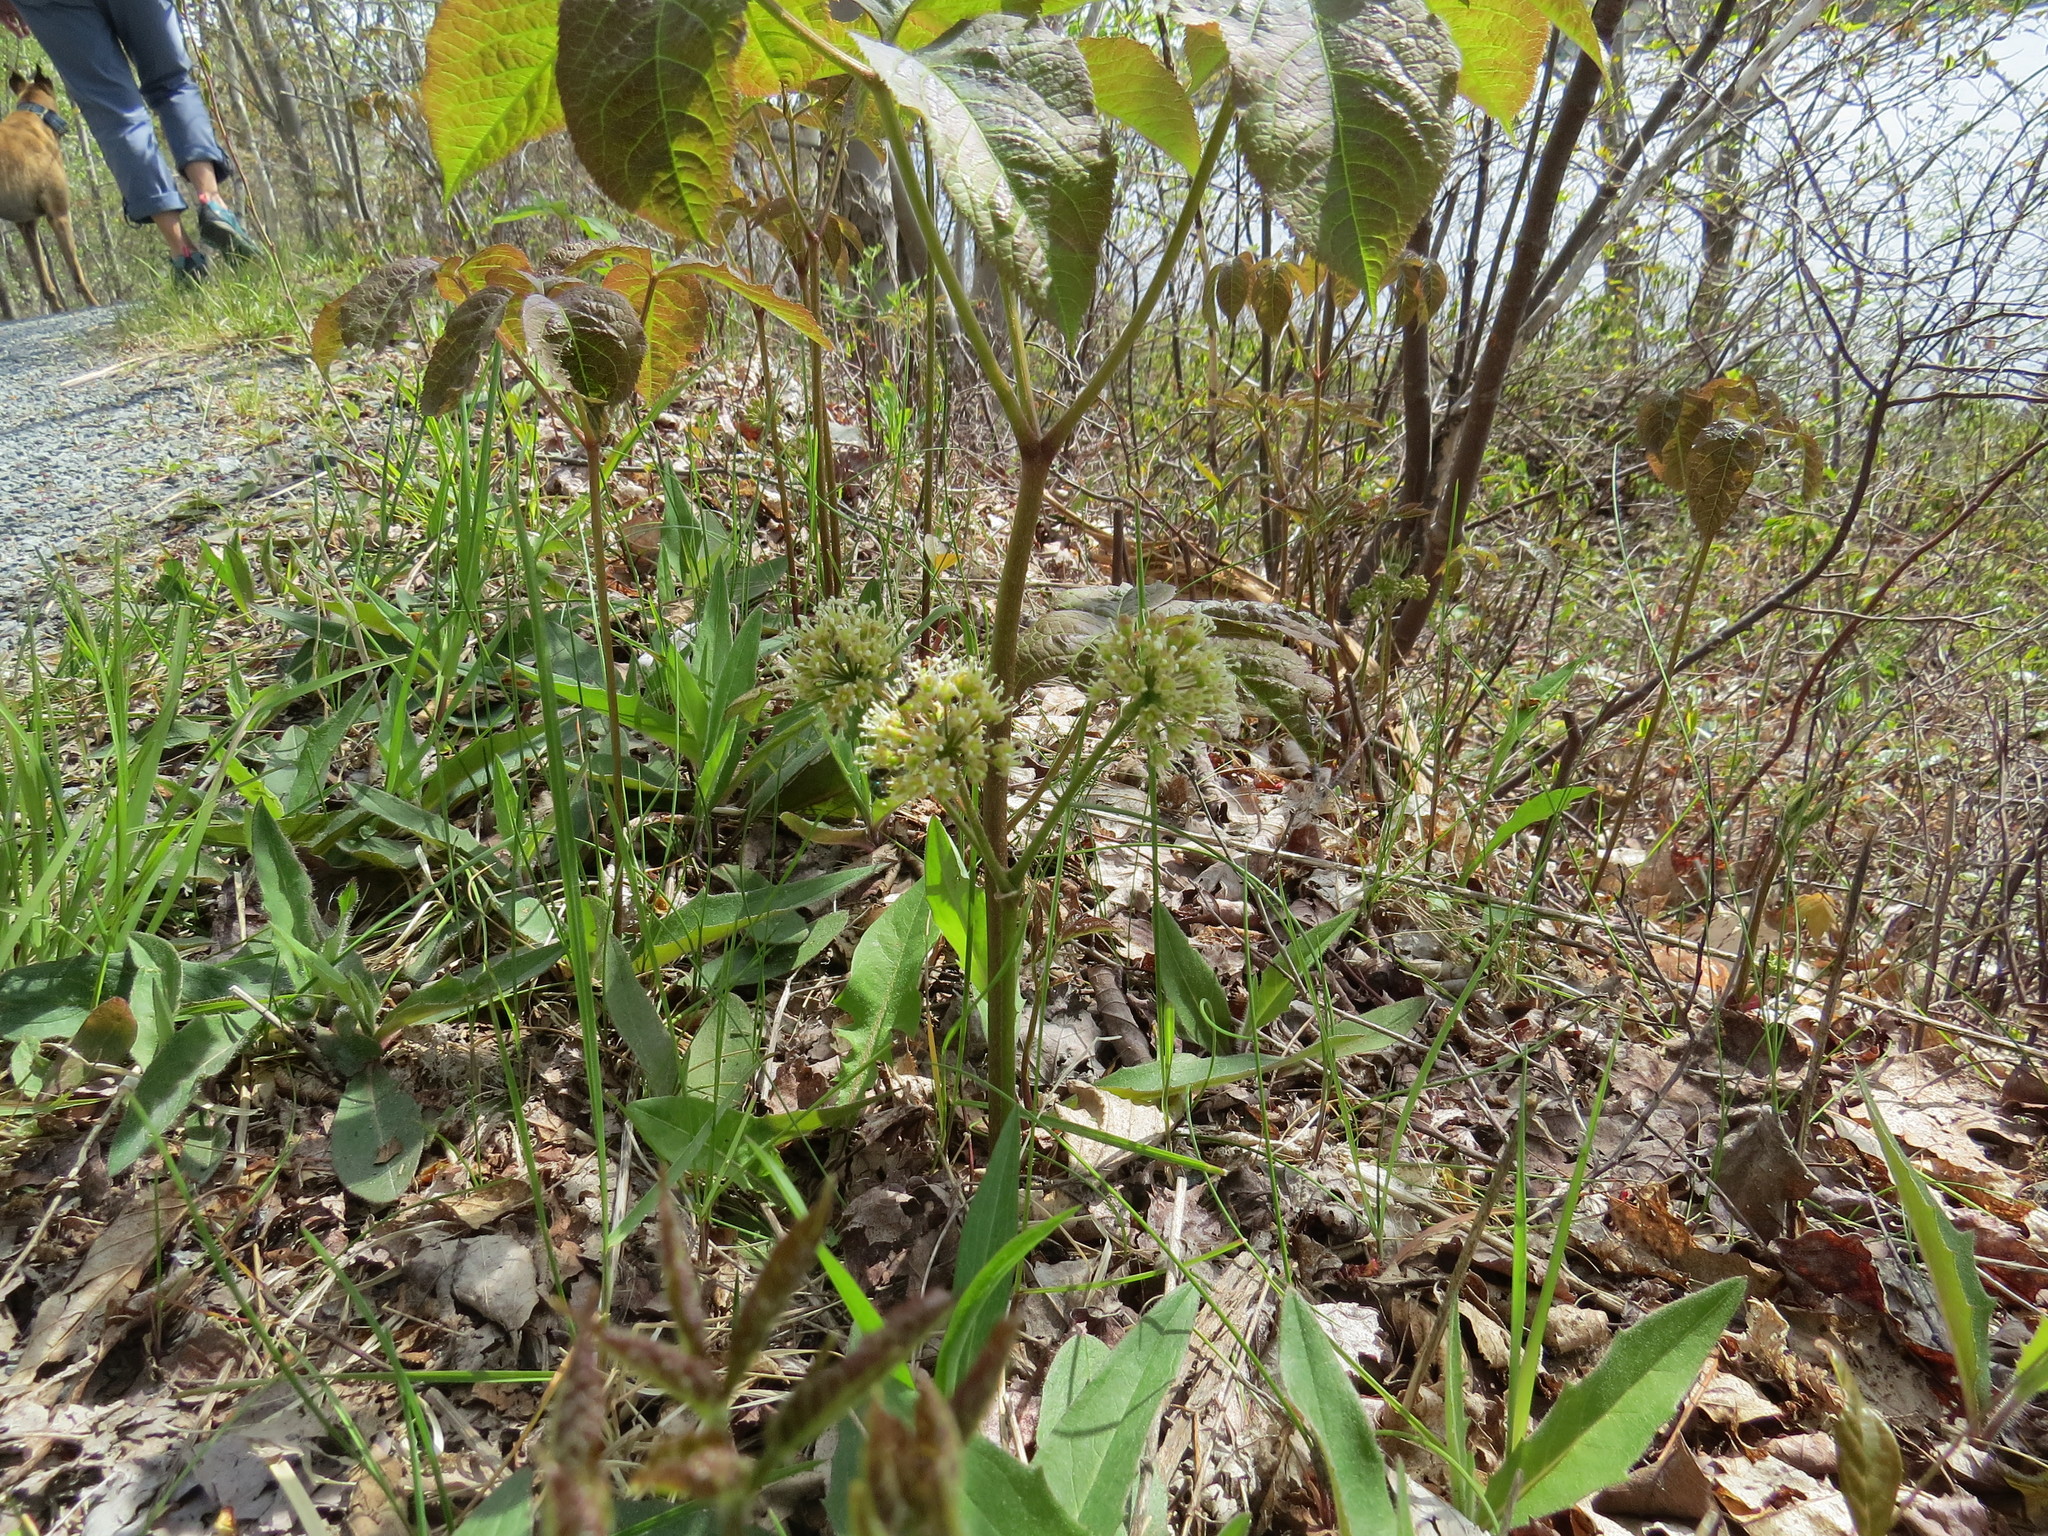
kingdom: Plantae
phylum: Tracheophyta
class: Magnoliopsida
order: Apiales
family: Araliaceae
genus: Aralia
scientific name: Aralia nudicaulis
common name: Wild sarsaparilla
